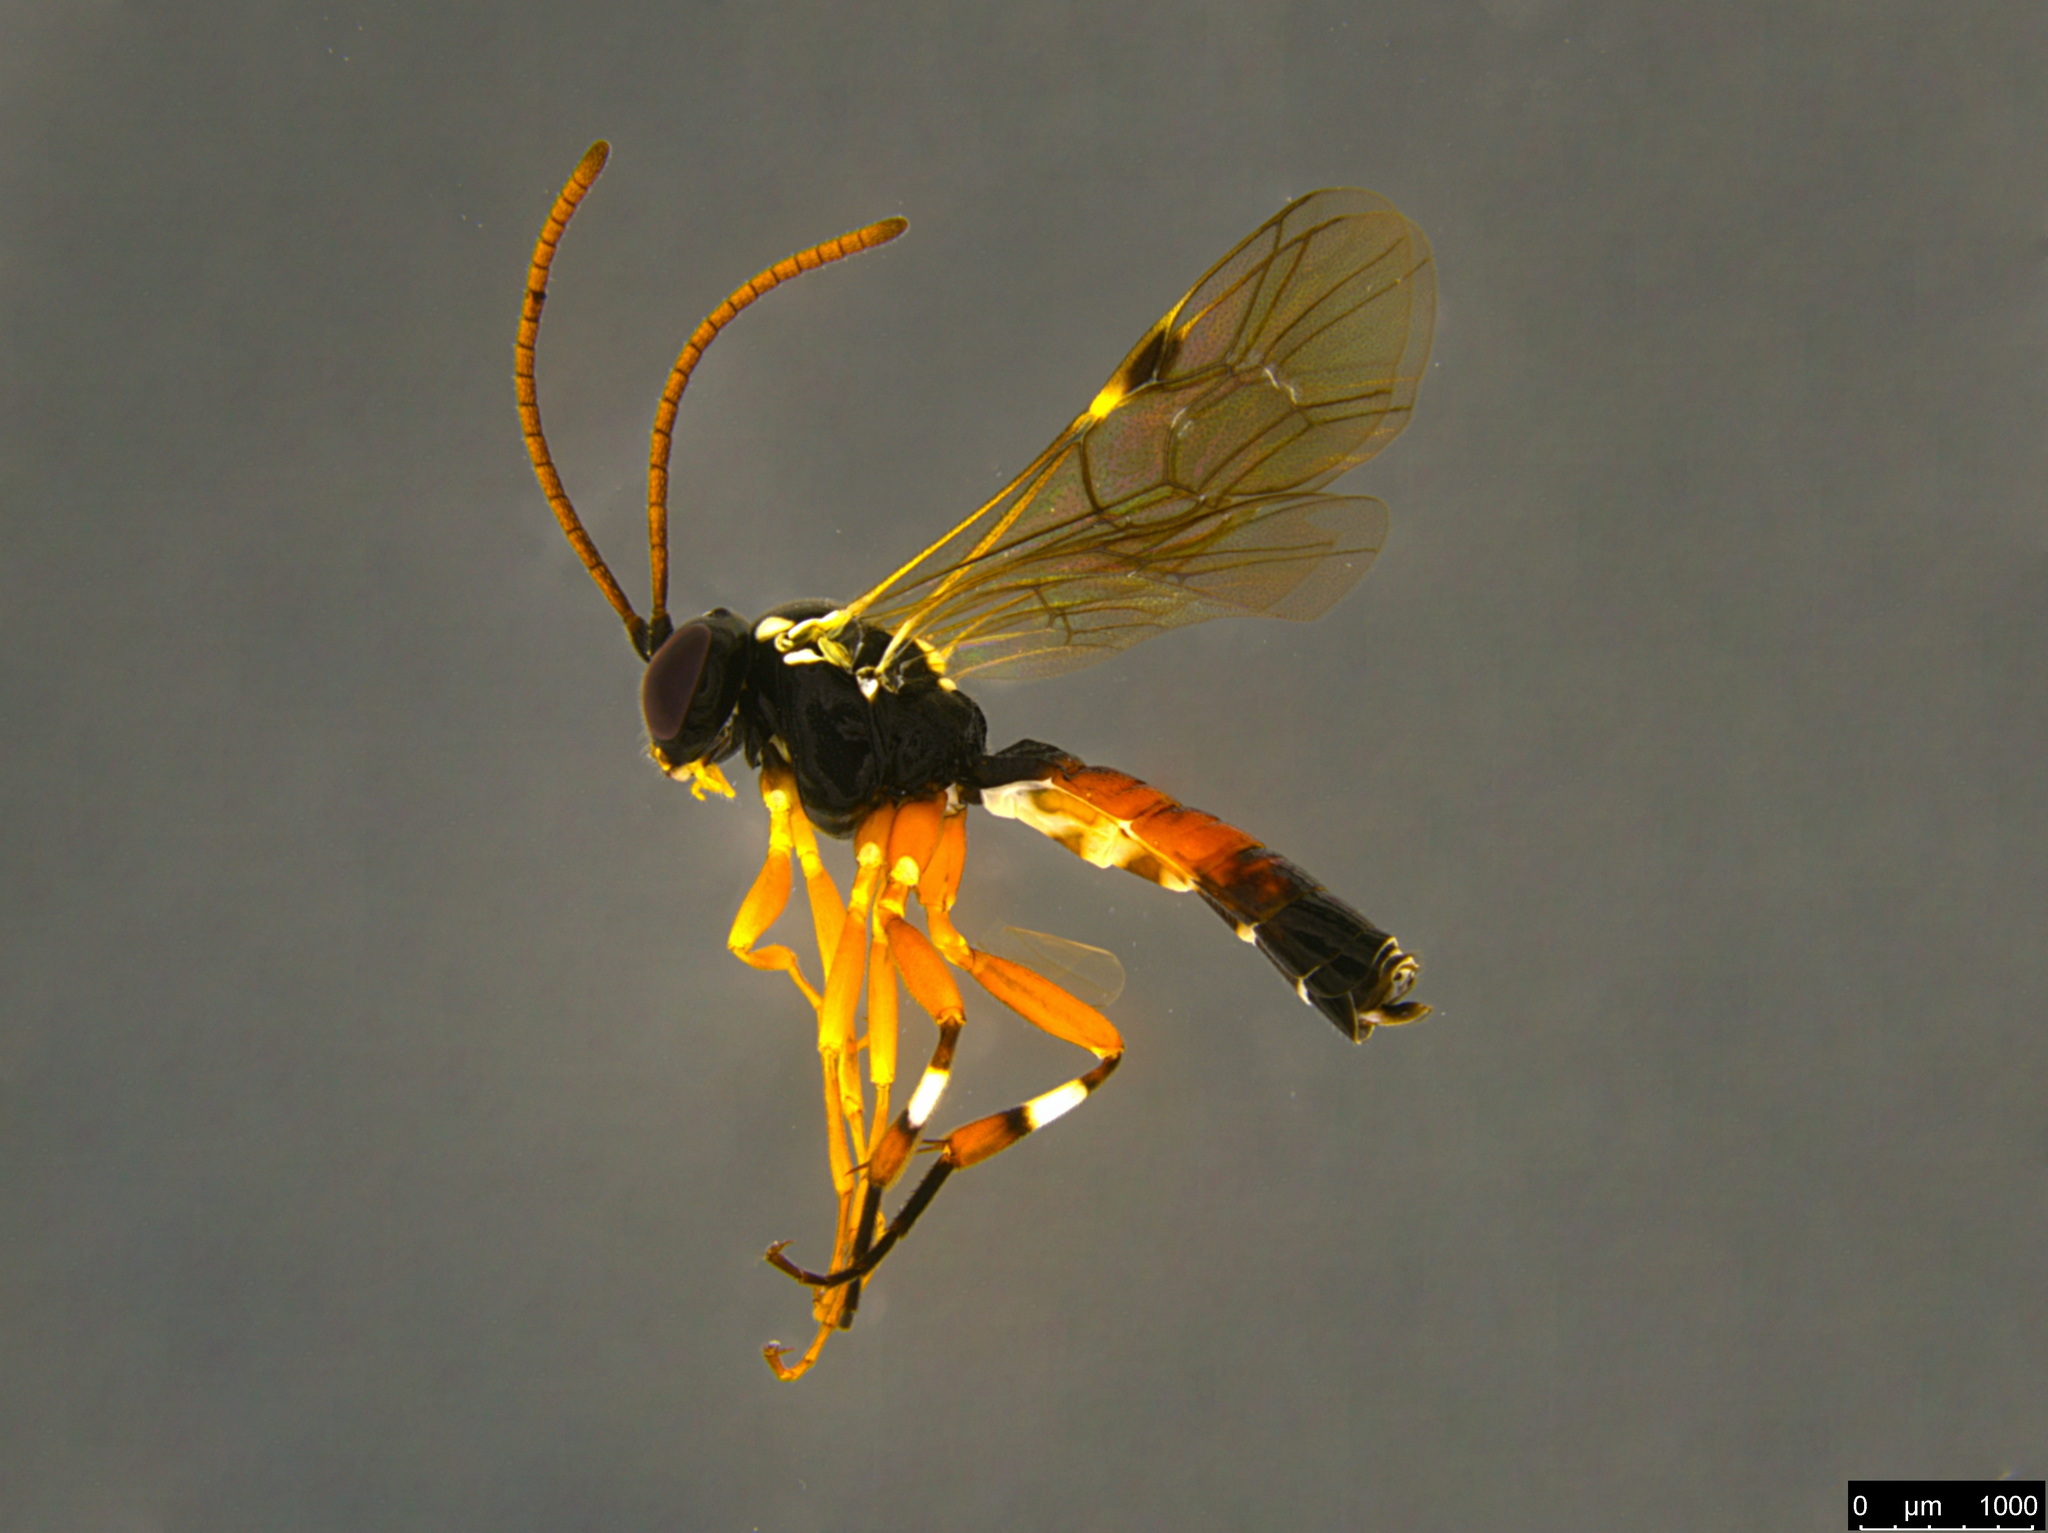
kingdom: Animalia
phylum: Arthropoda
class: Insecta
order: Hymenoptera
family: Ichneumonidae
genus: Diplazon
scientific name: Diplazon laetatorius
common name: Parasitoid wasp
